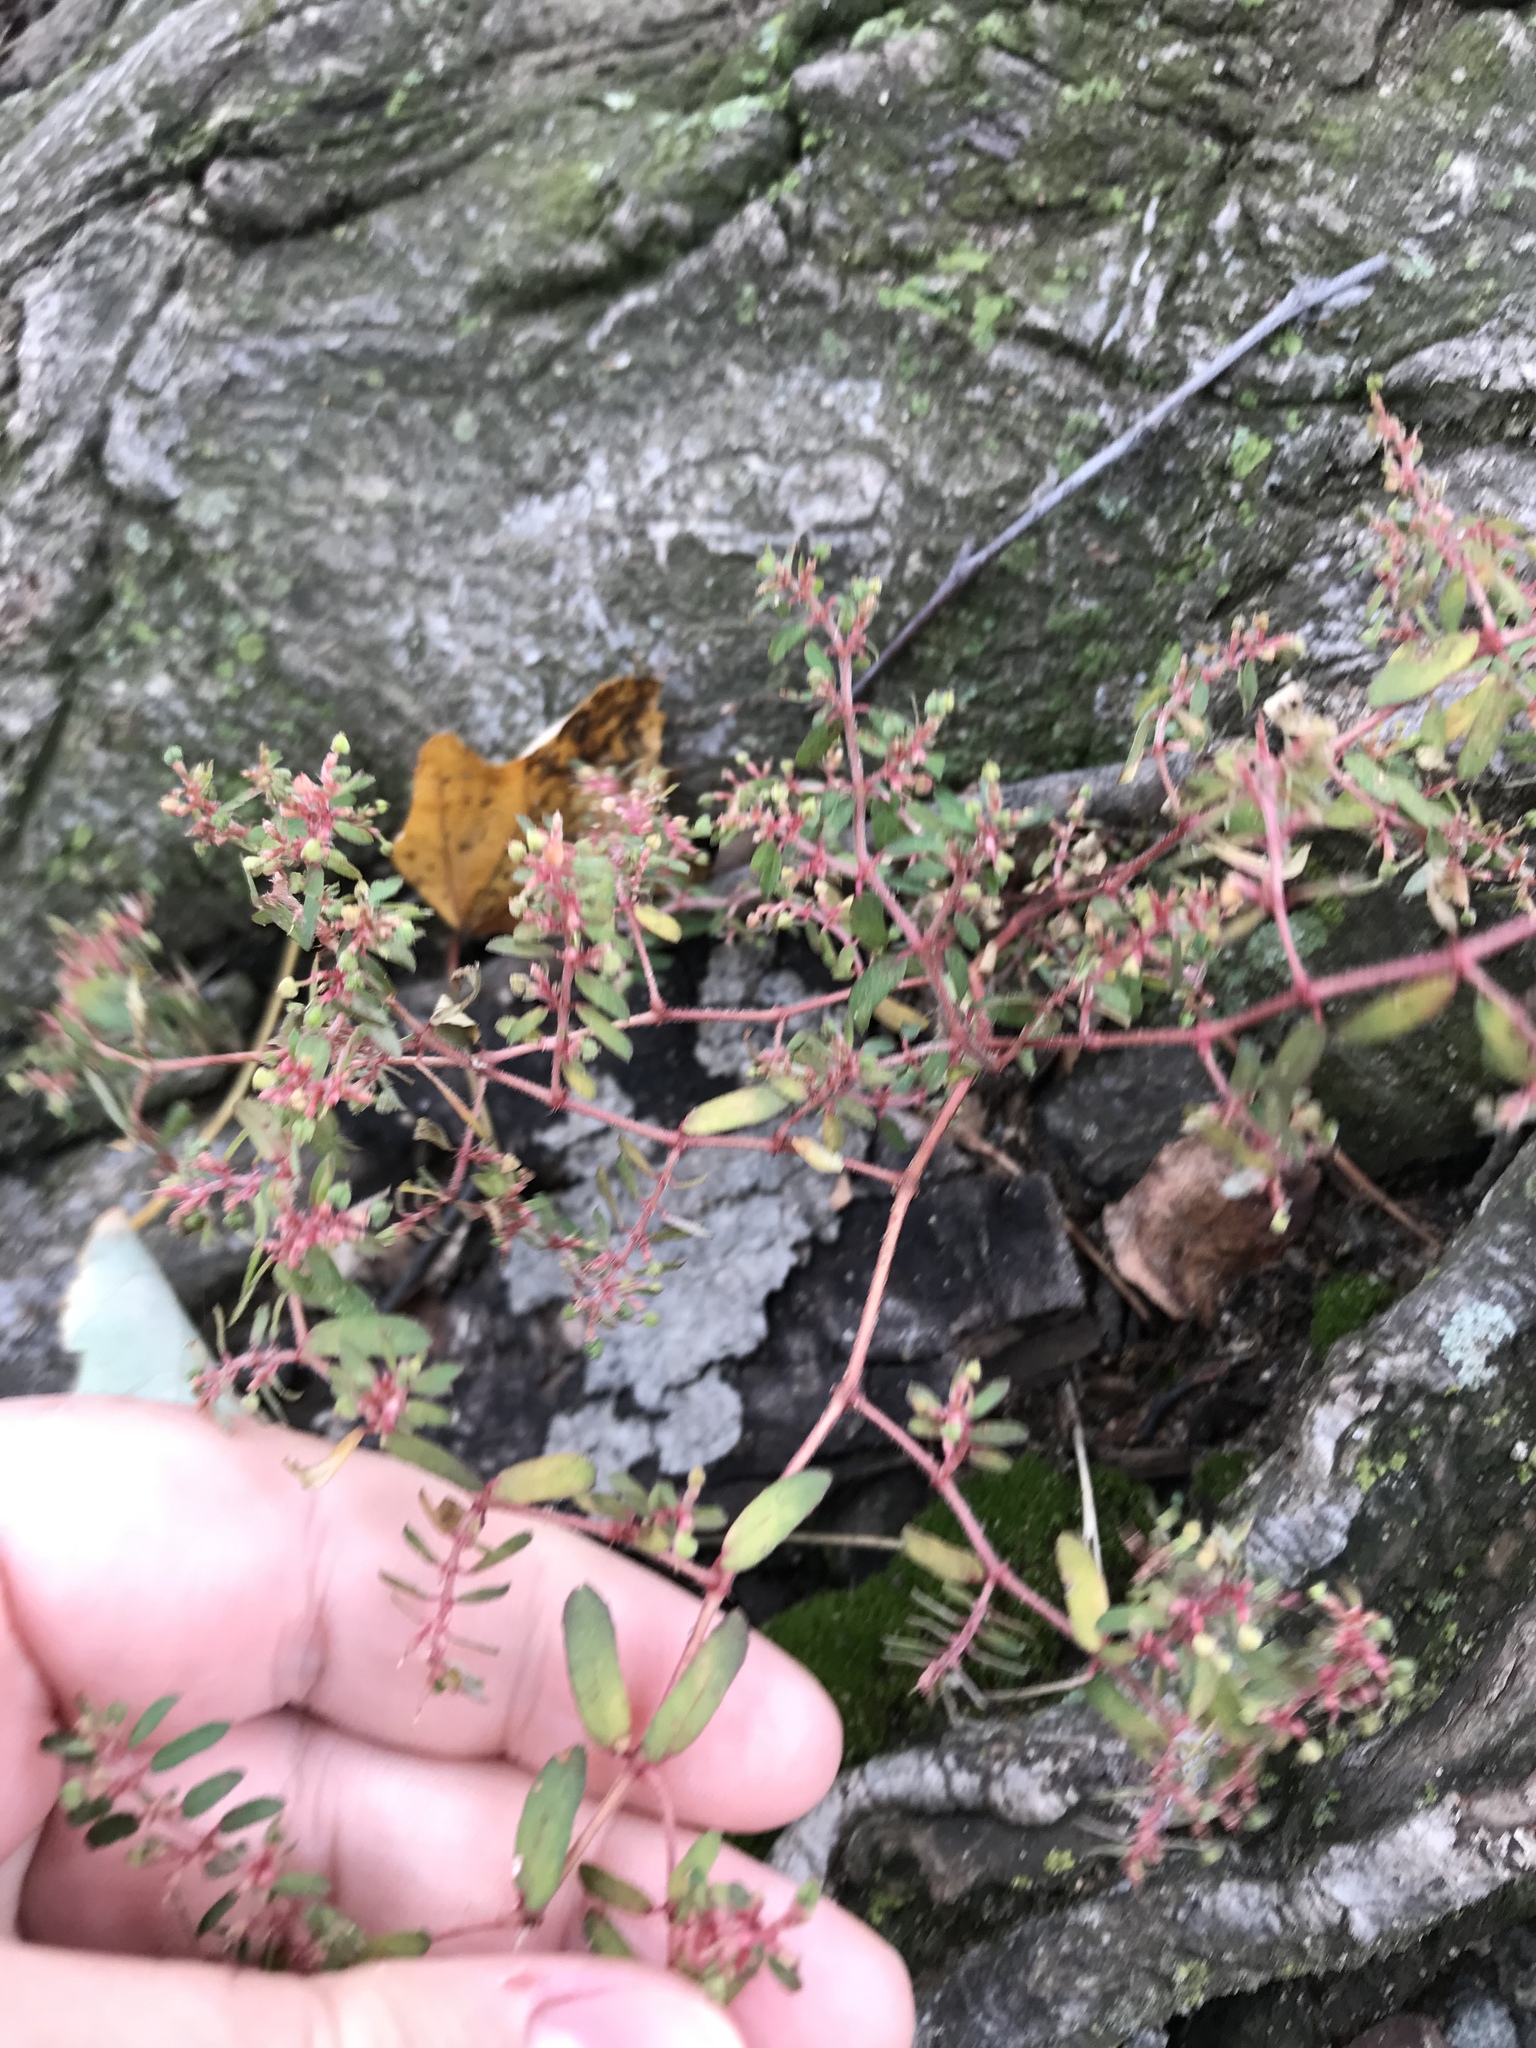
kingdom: Plantae
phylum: Tracheophyta
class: Magnoliopsida
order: Malpighiales
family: Euphorbiaceae
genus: Euphorbia
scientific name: Euphorbia maculata
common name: Spotted spurge
